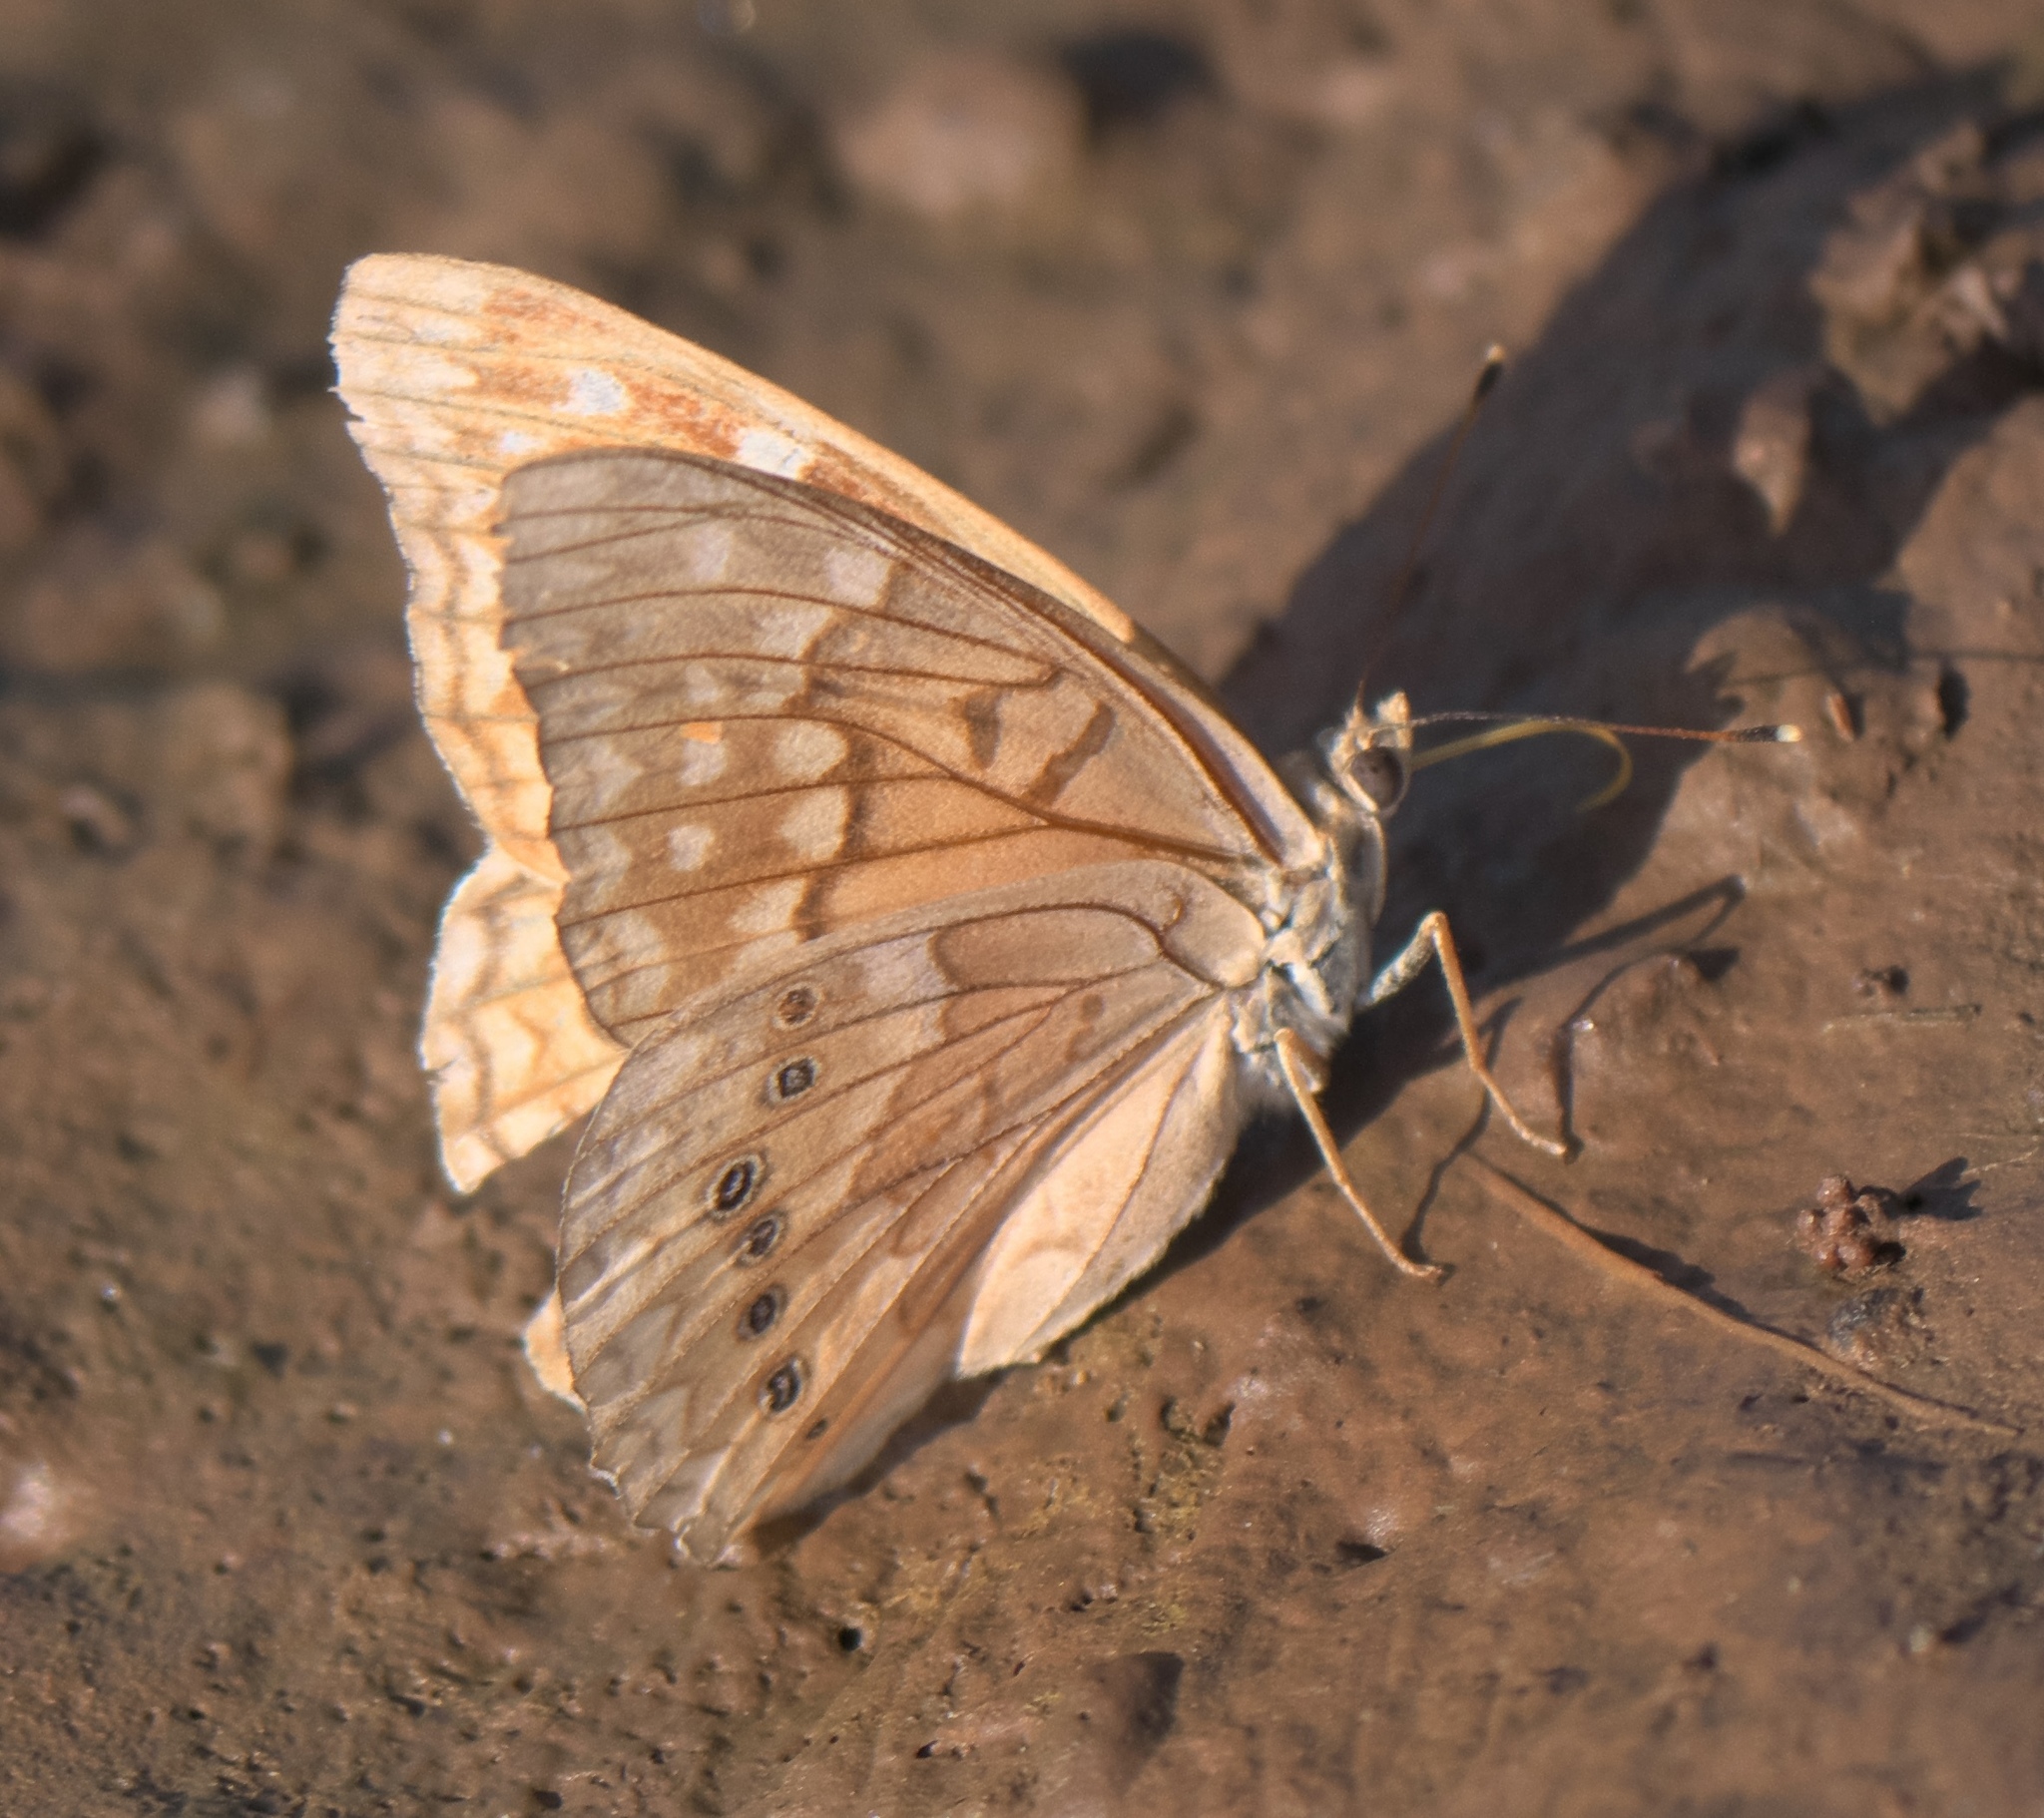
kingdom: Animalia
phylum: Arthropoda
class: Insecta
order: Lepidoptera
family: Nymphalidae
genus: Asterocampa
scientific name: Asterocampa clyton
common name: Tawny emperor
